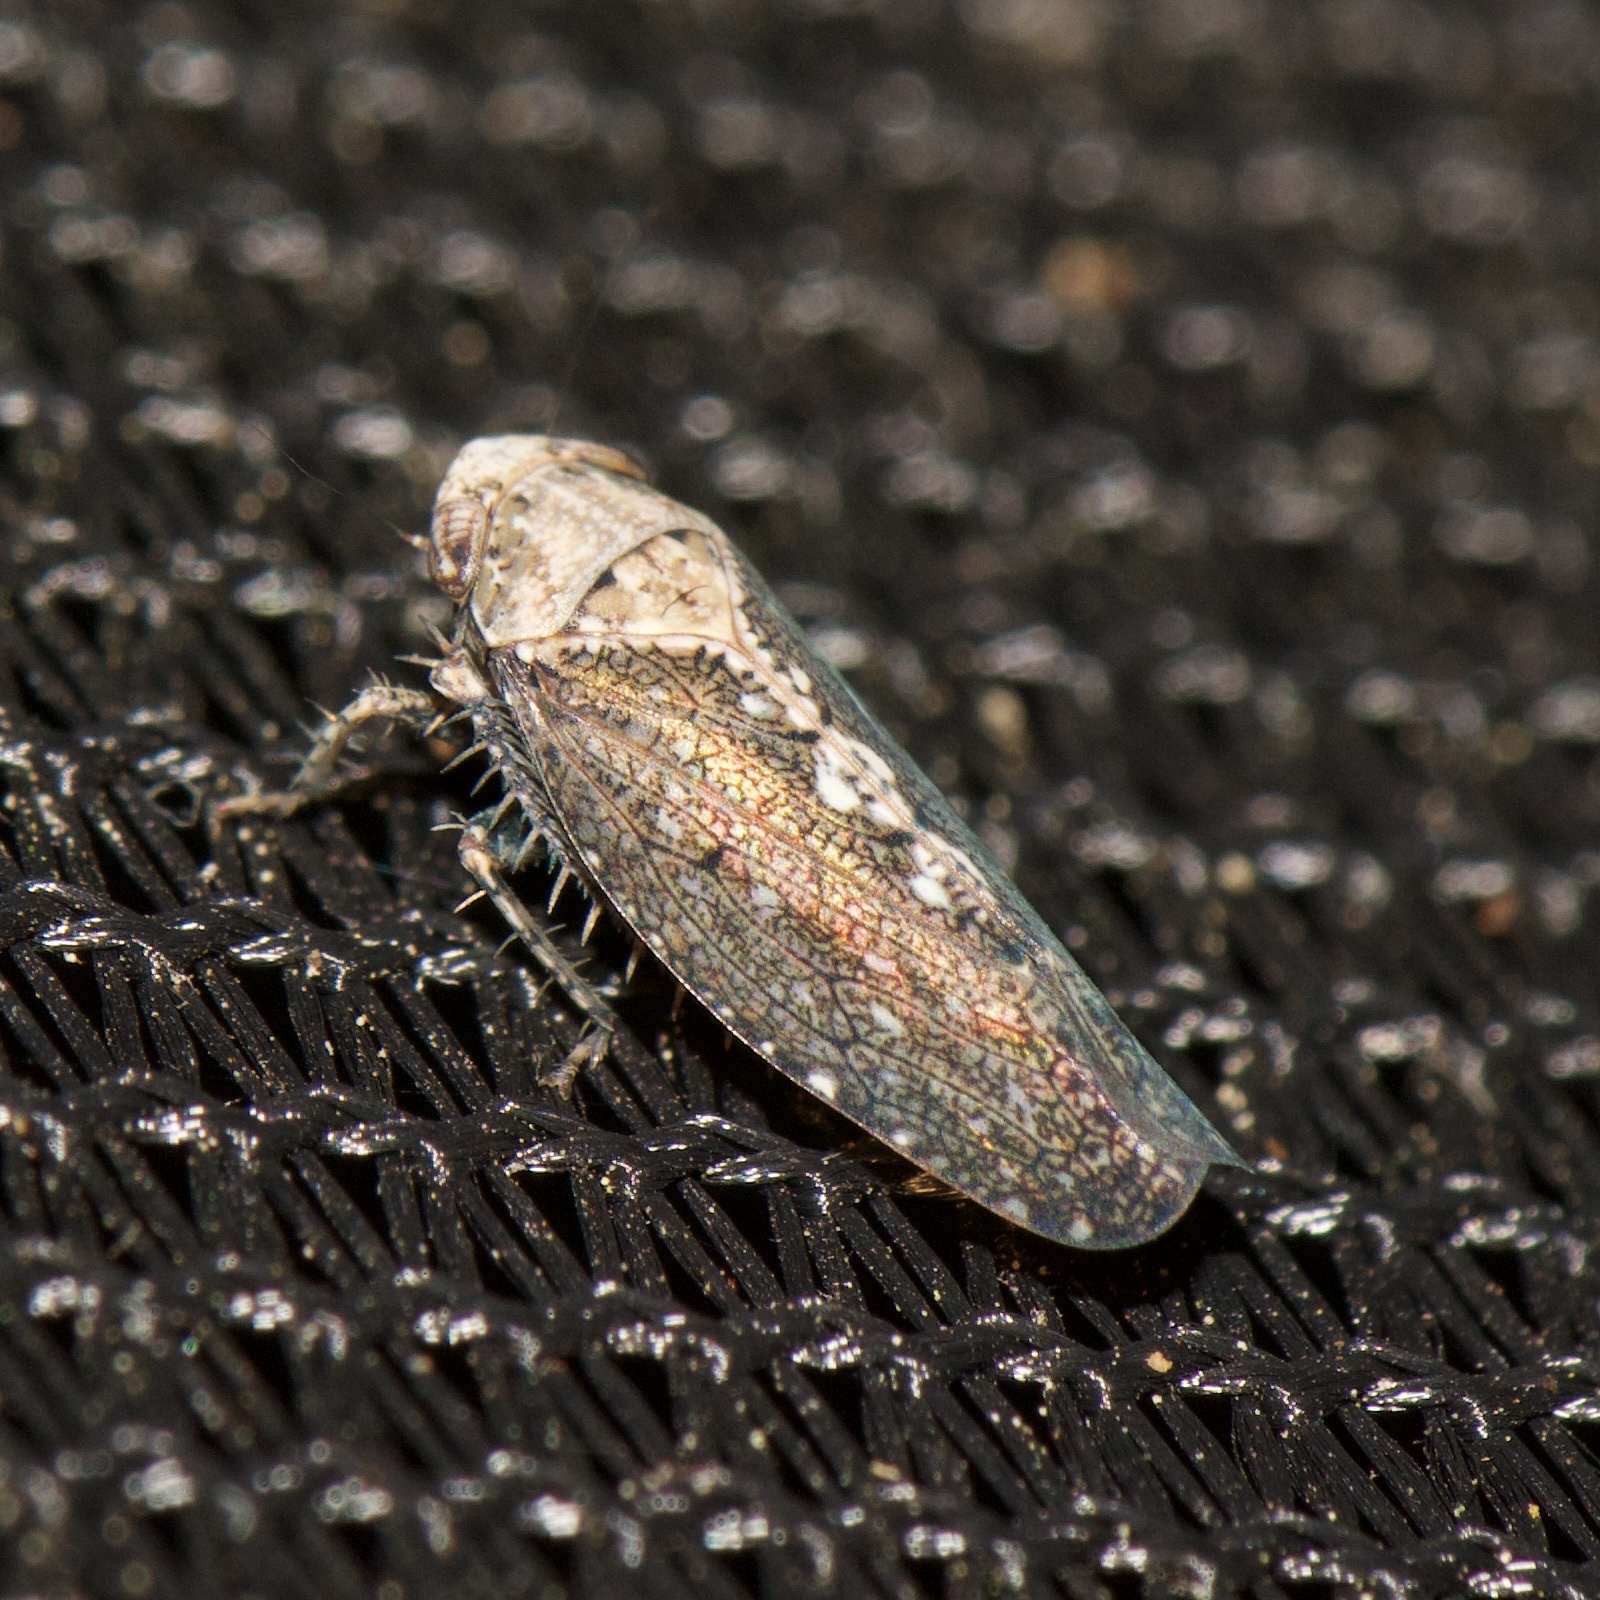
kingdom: Animalia
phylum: Arthropoda
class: Insecta
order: Hemiptera
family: Cicadellidae
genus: Excultanus
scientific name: Excultanus excultus
